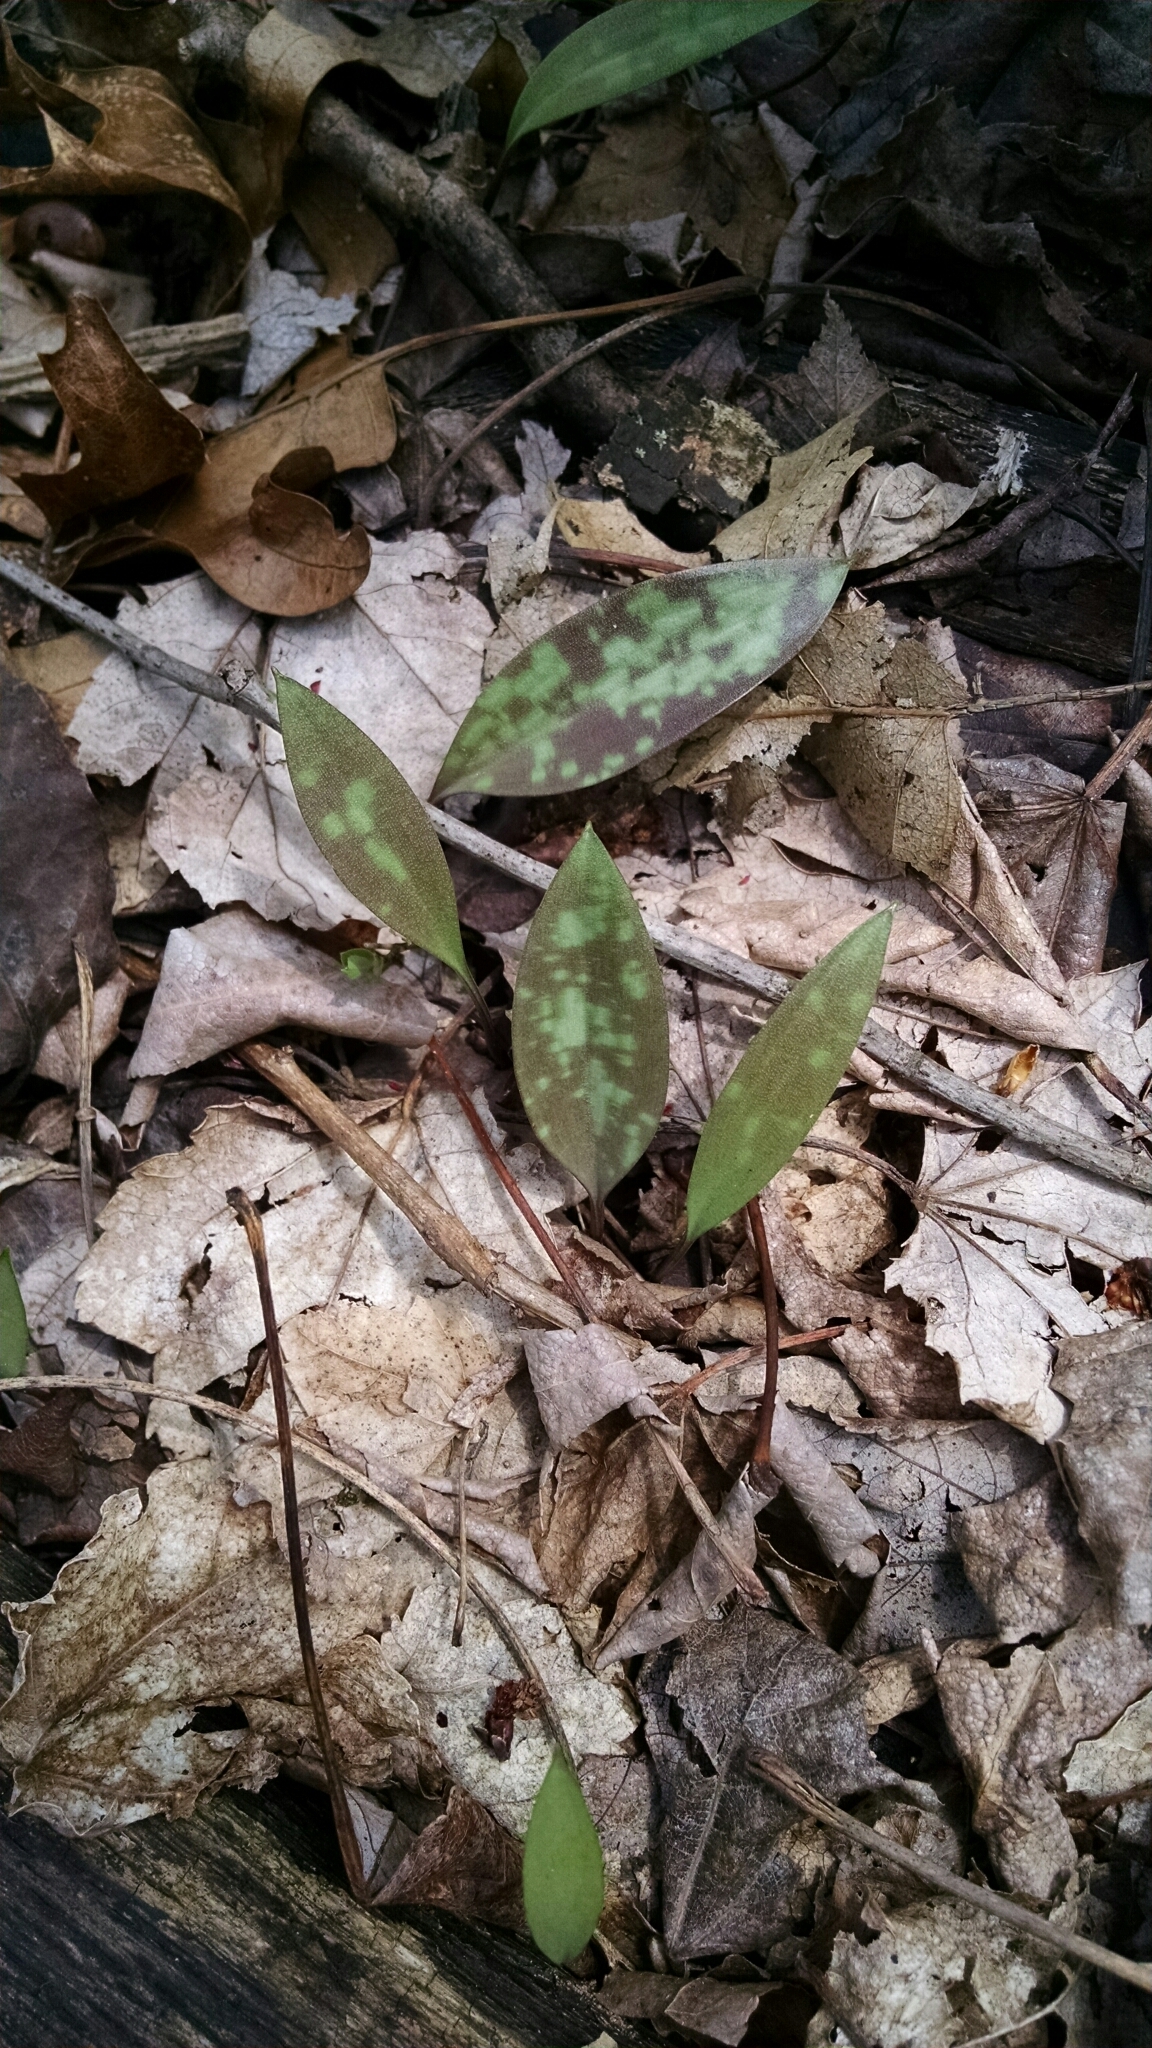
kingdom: Plantae
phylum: Tracheophyta
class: Liliopsida
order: Liliales
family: Liliaceae
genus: Erythronium
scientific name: Erythronium americanum
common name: Yellow adder's-tongue
